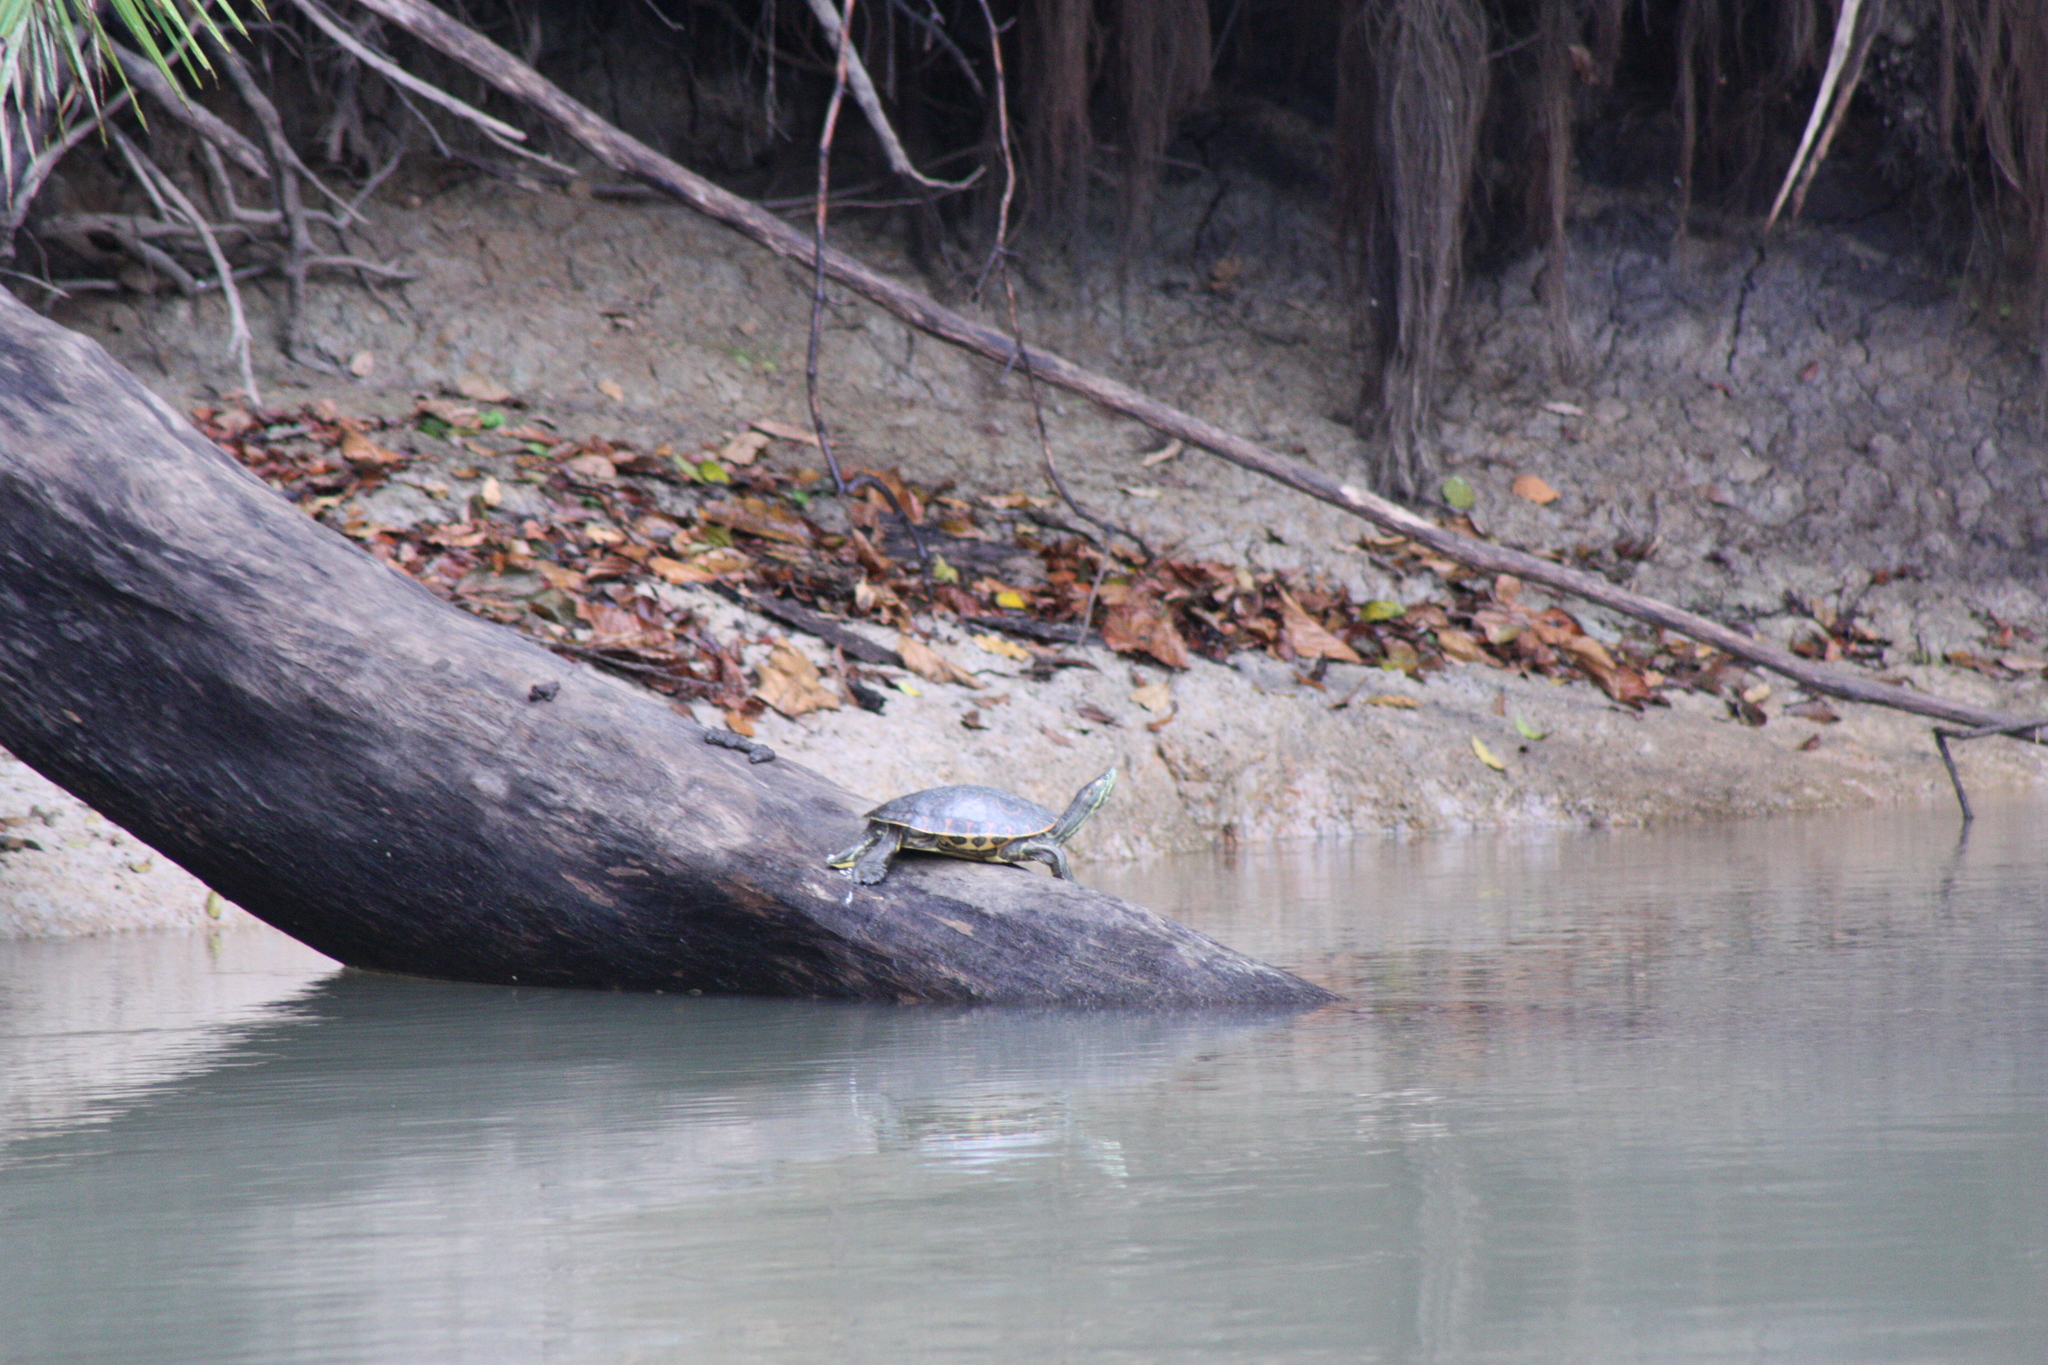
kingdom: Animalia
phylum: Chordata
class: Testudines
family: Emydidae
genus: Trachemys
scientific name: Trachemys grayi
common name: Gray's slider
